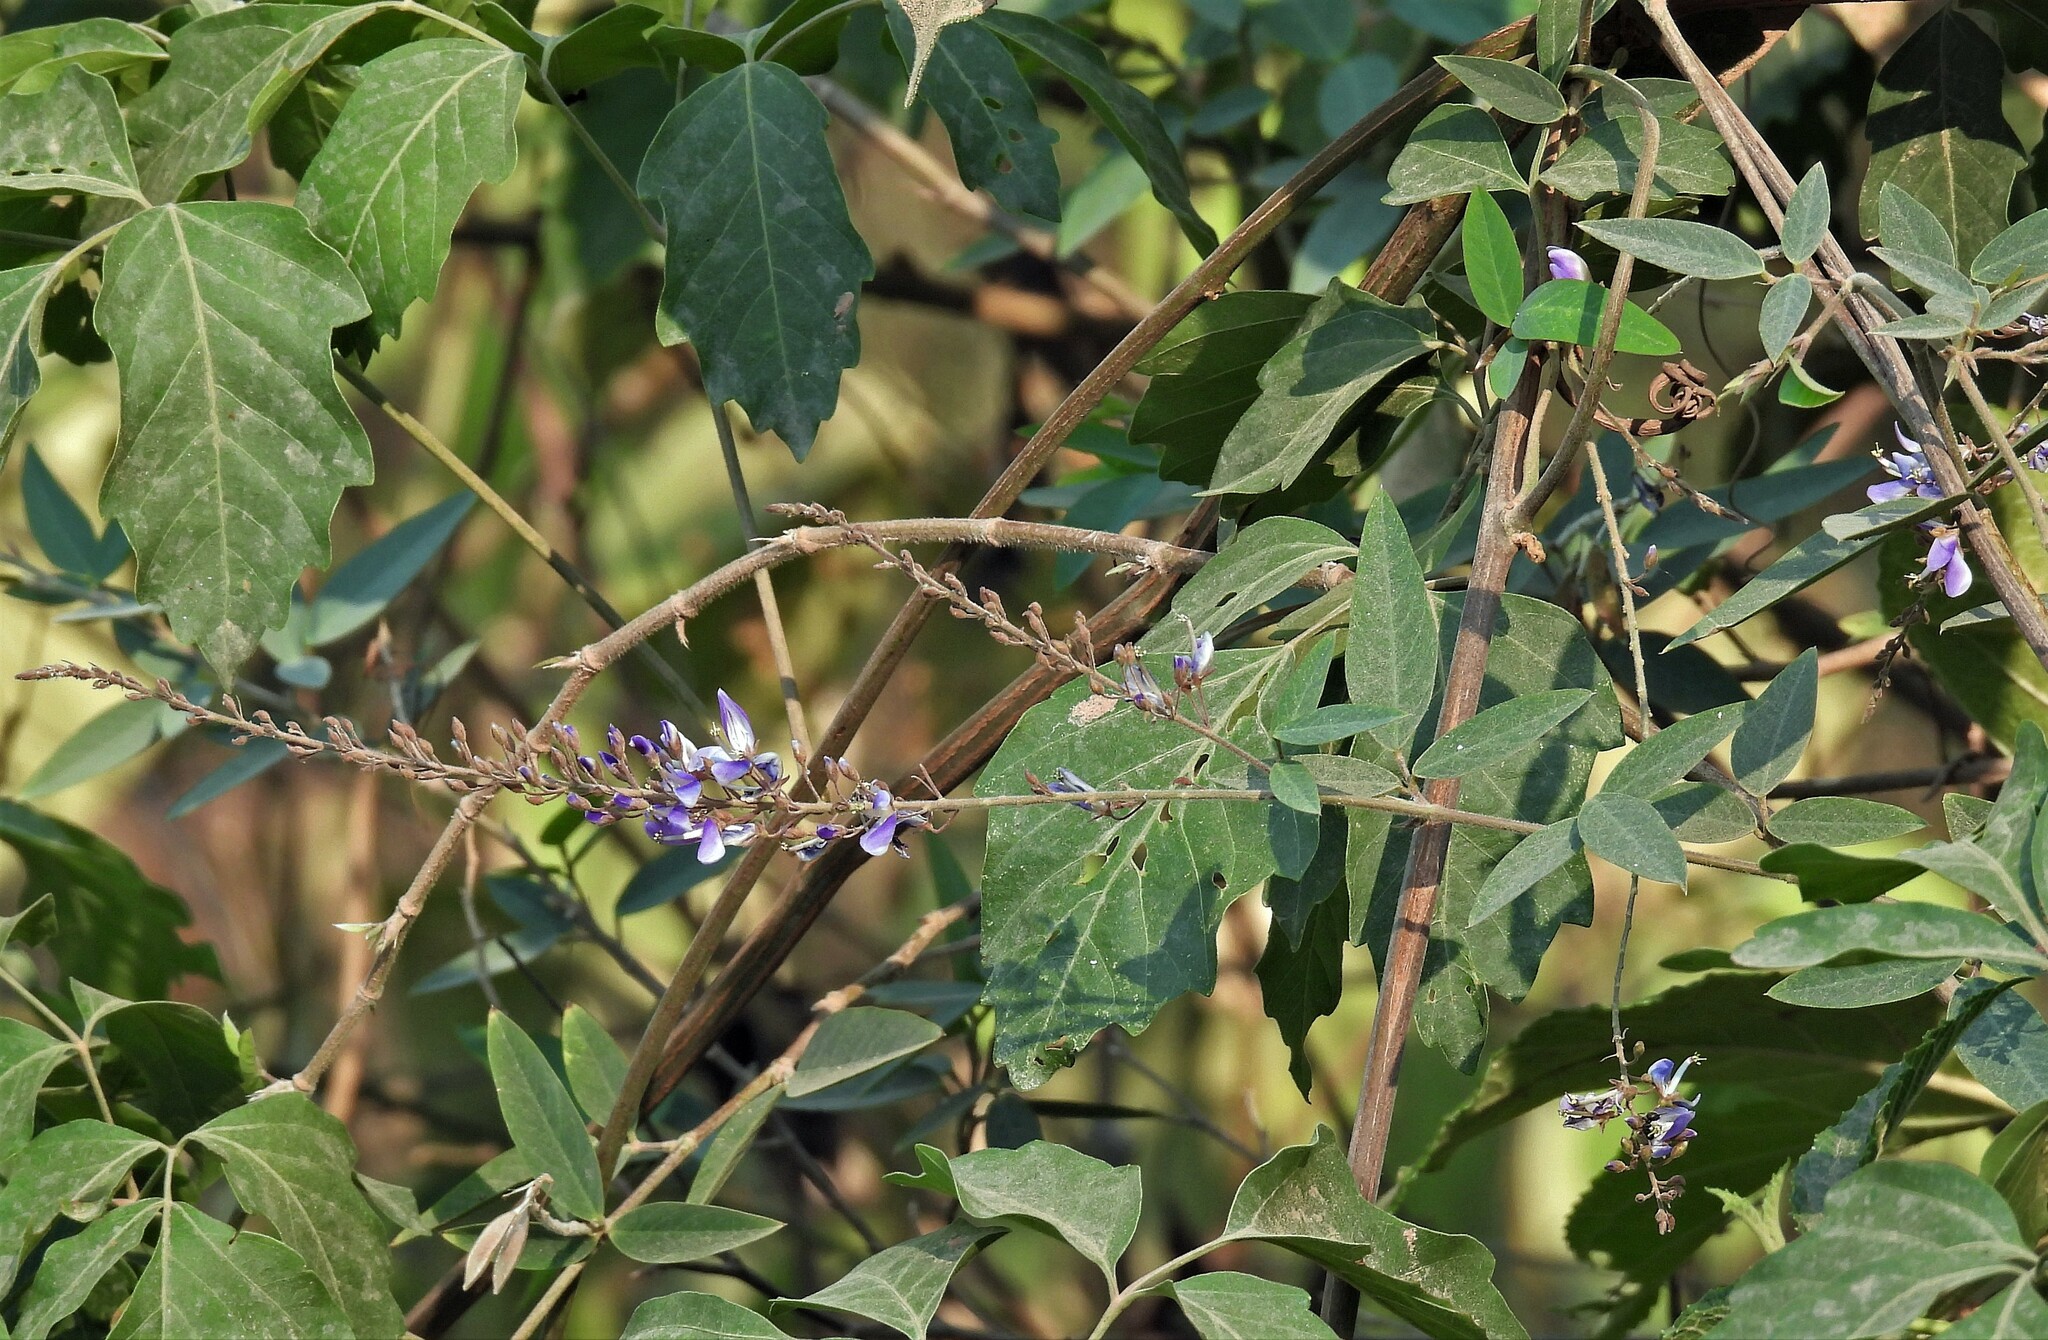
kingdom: Plantae
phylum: Tracheophyta
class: Magnoliopsida
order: Fabales
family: Fabaceae
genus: Desmodium
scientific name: Desmodium bridgesii
